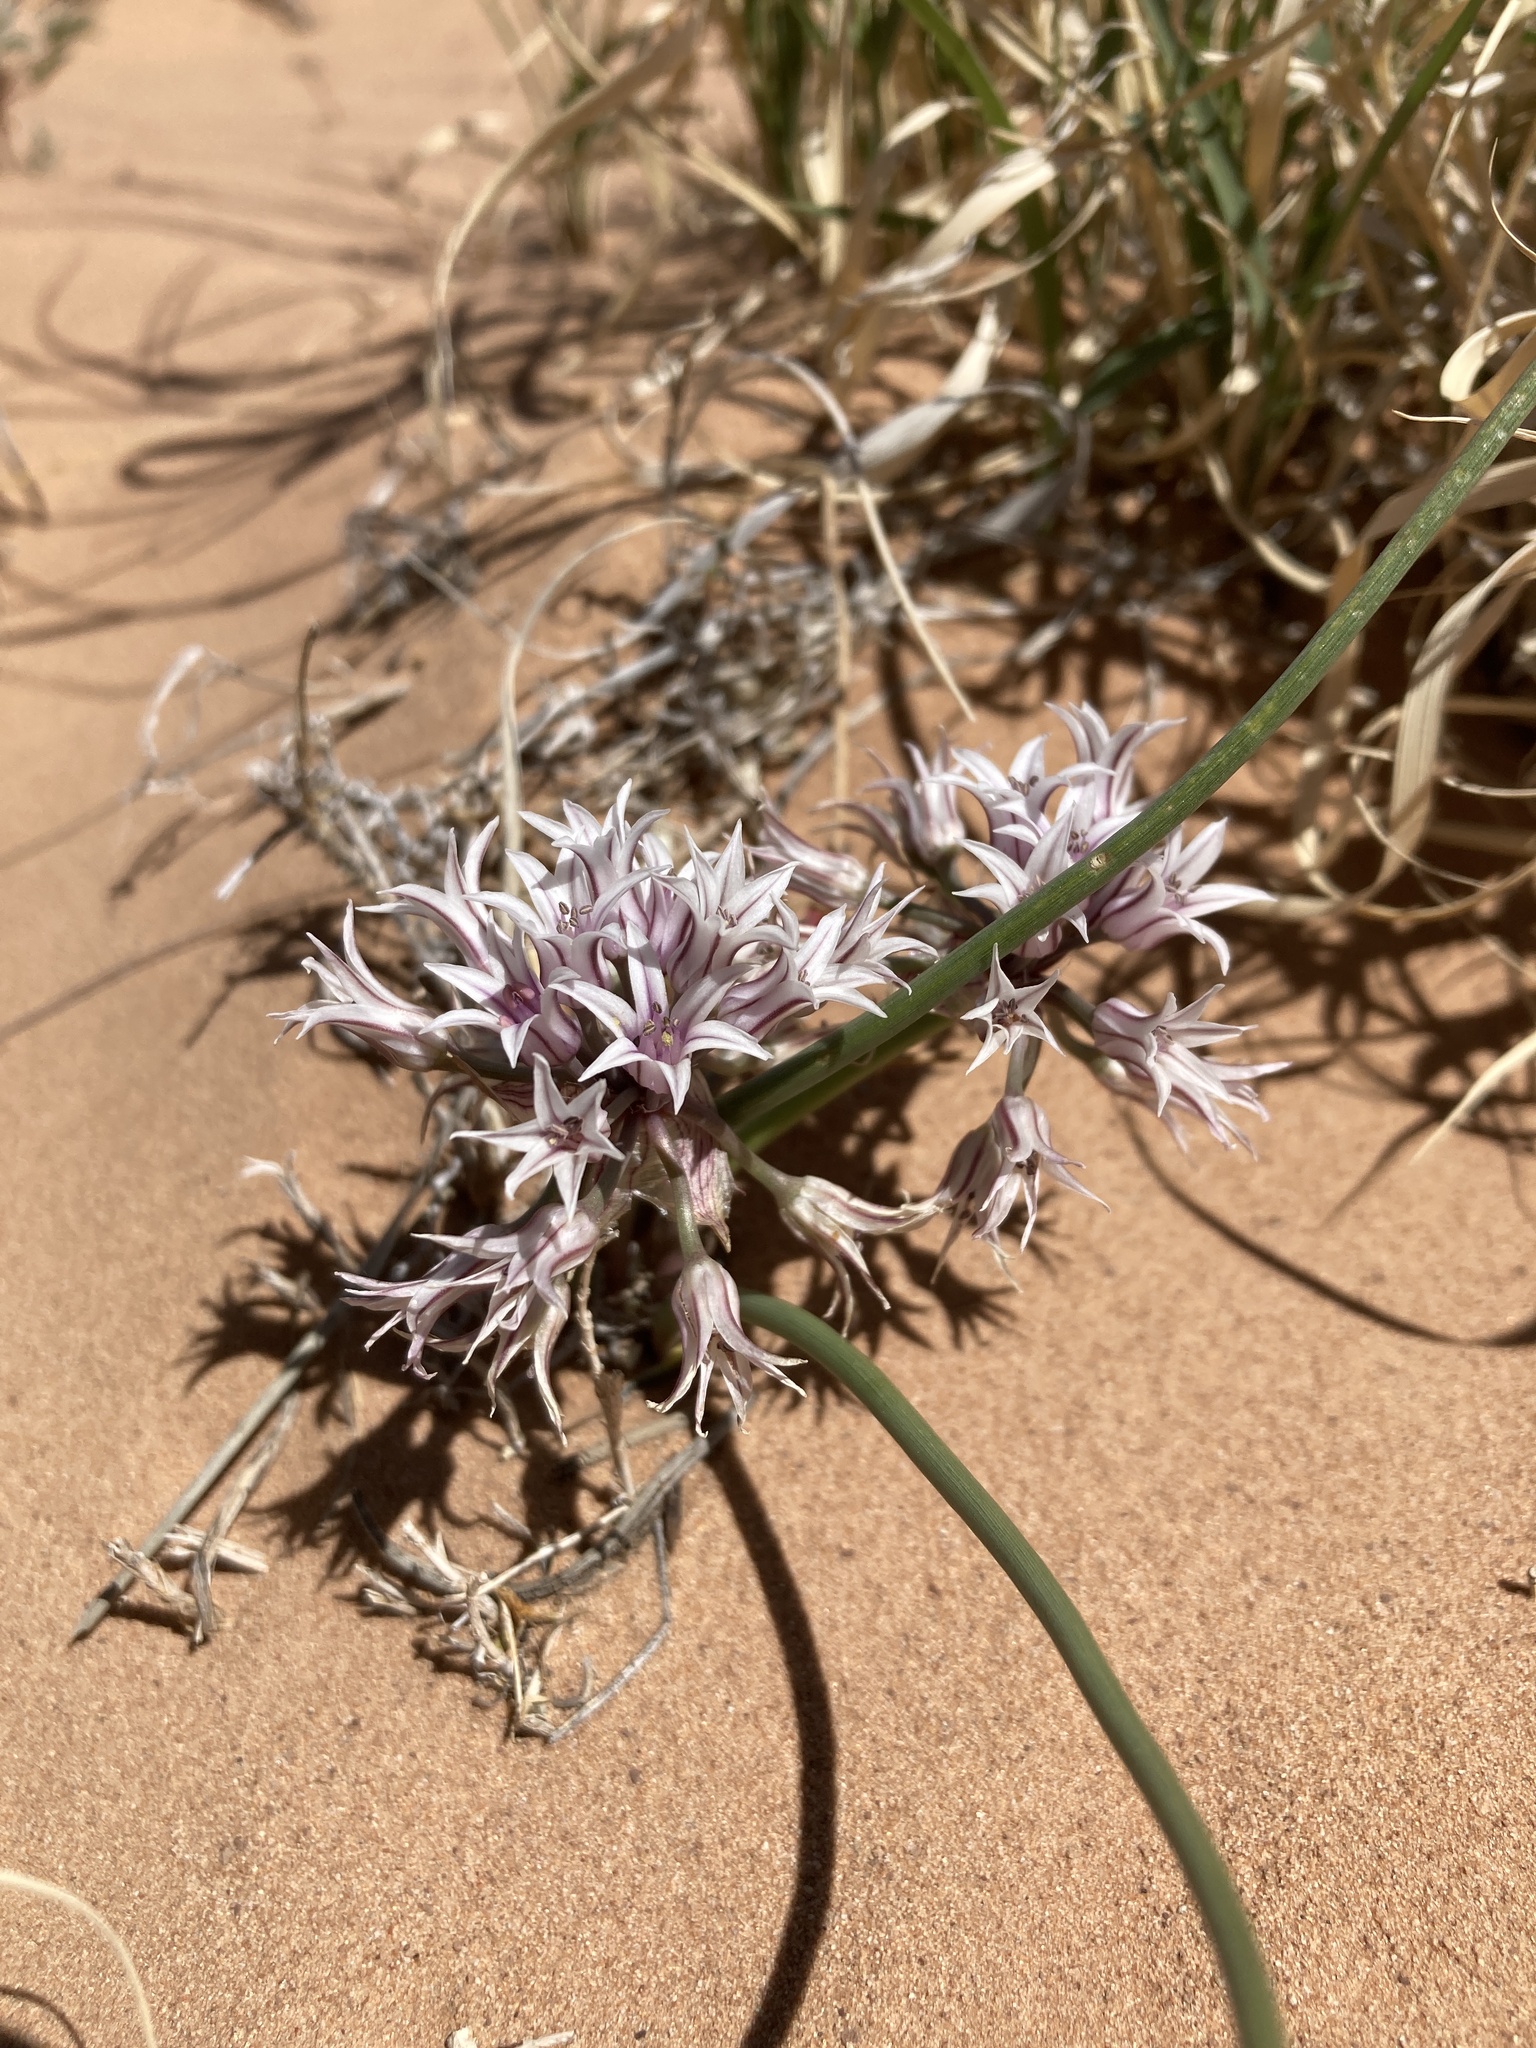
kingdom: Plantae
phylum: Tracheophyta
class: Liliopsida
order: Asparagales
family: Amaryllidaceae
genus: Allium
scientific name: Allium macropetalum
